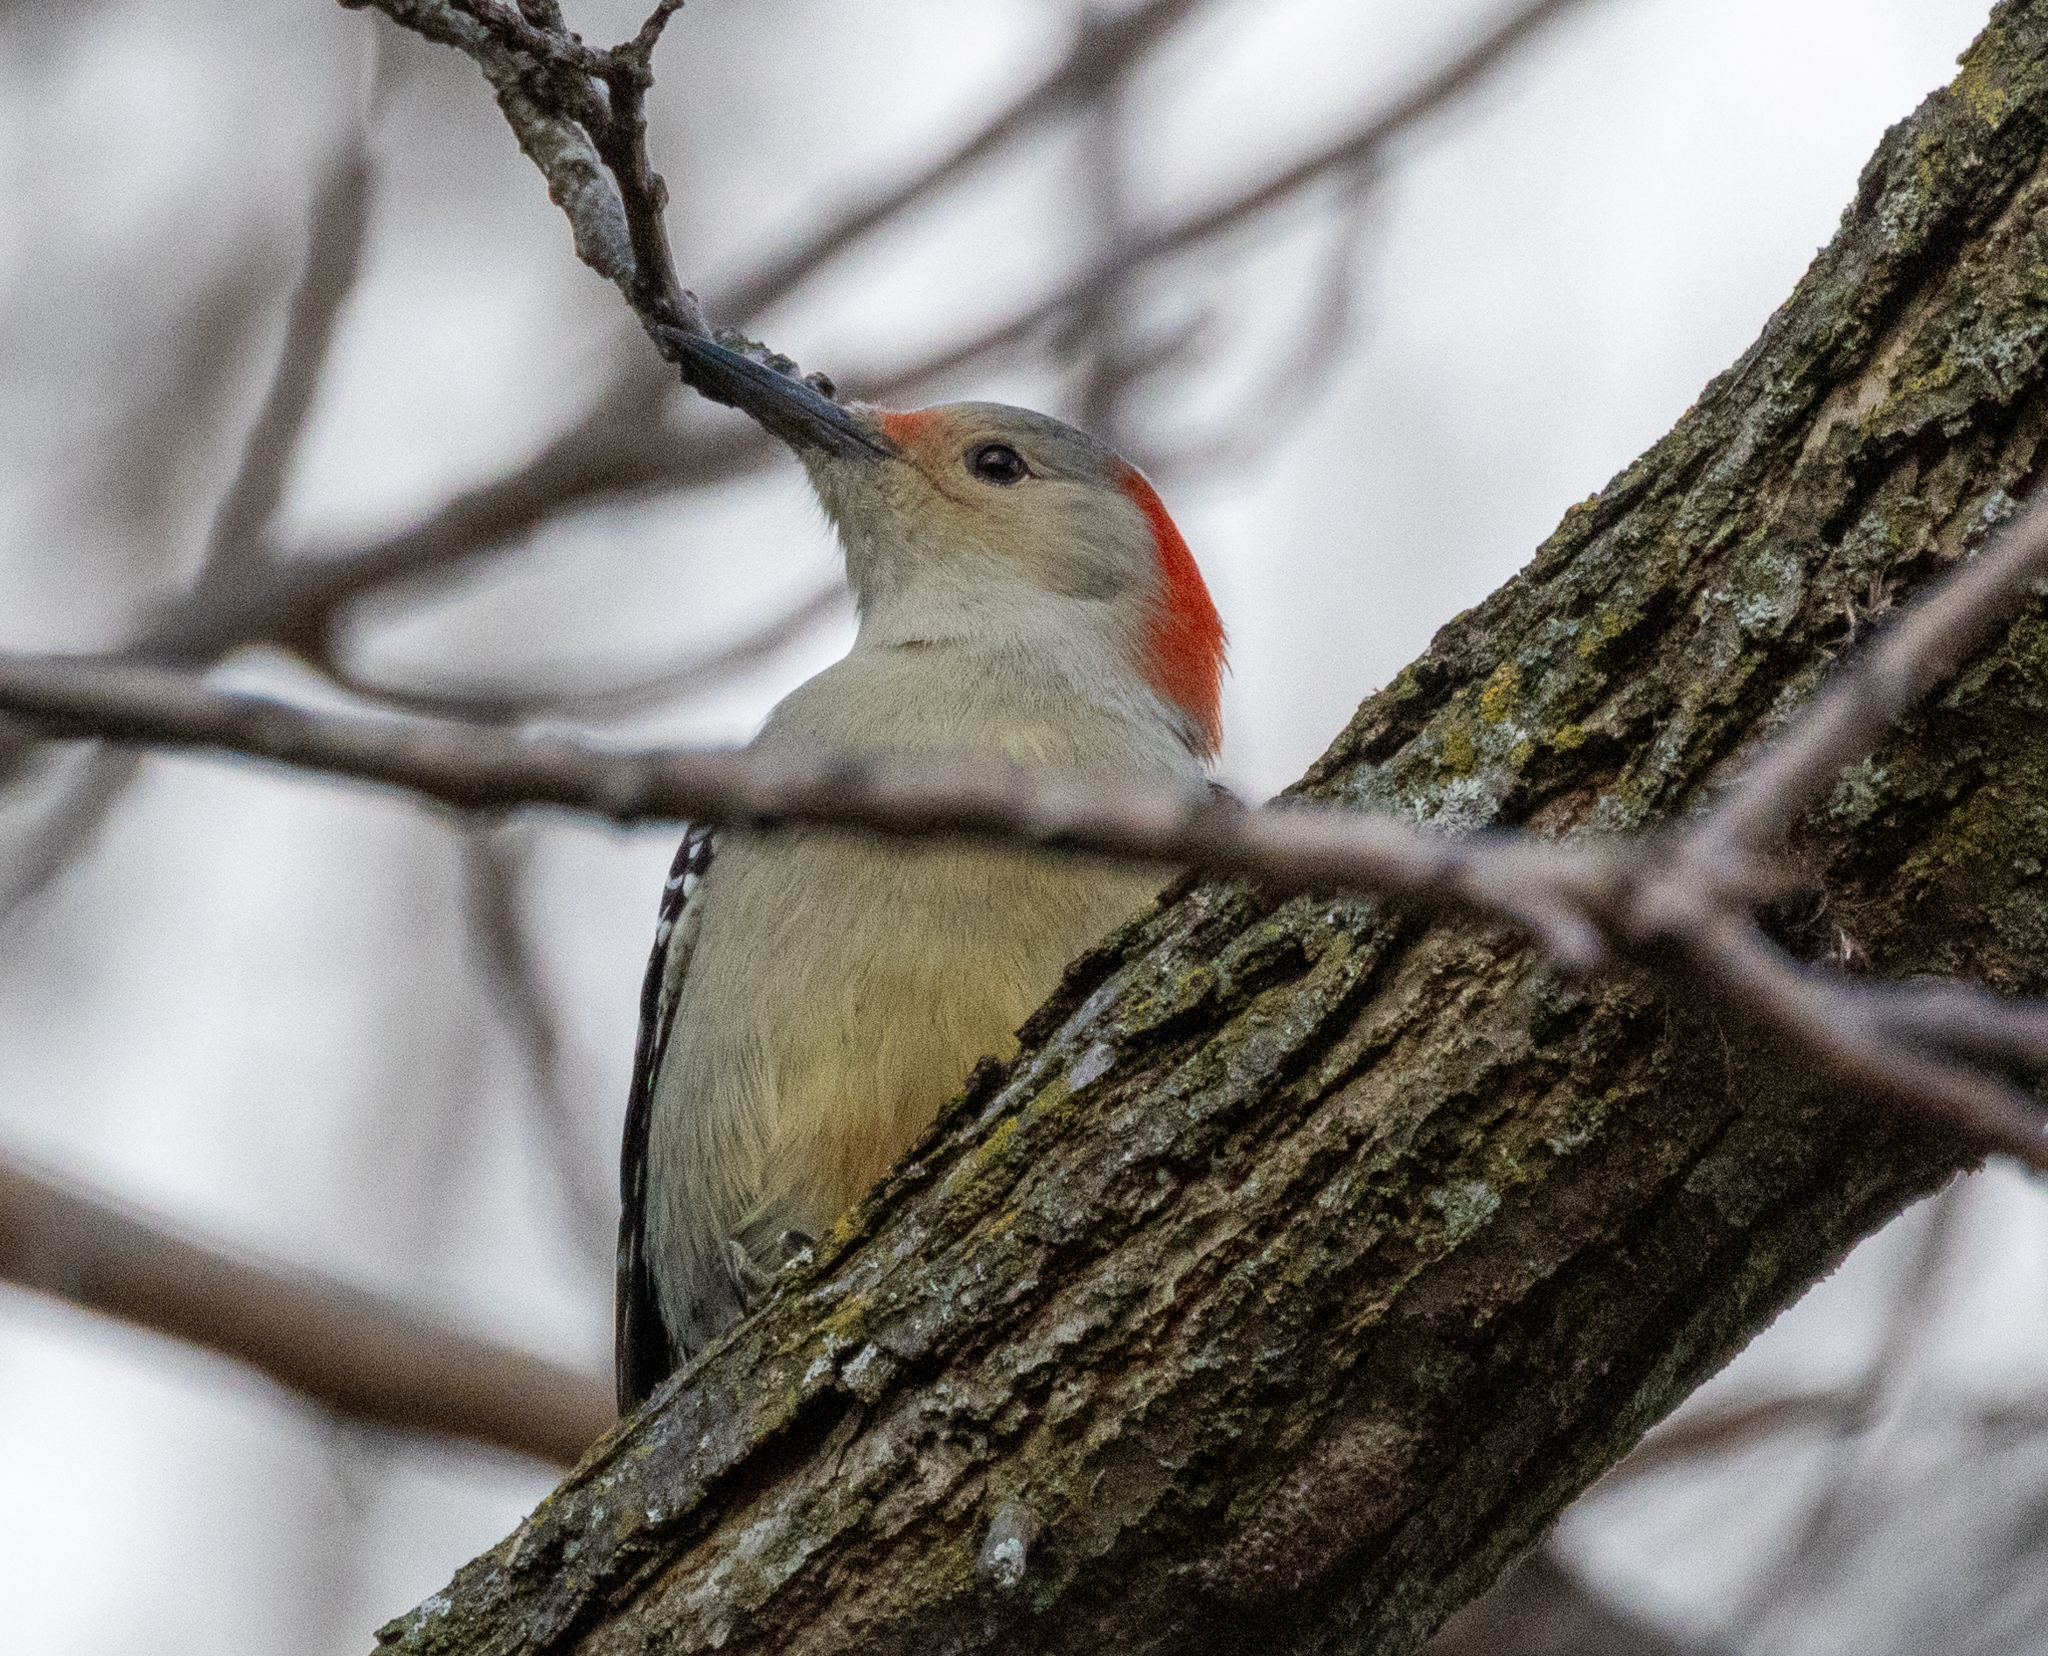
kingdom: Animalia
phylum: Chordata
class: Aves
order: Piciformes
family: Picidae
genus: Melanerpes
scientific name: Melanerpes carolinus
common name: Red-bellied woodpecker
